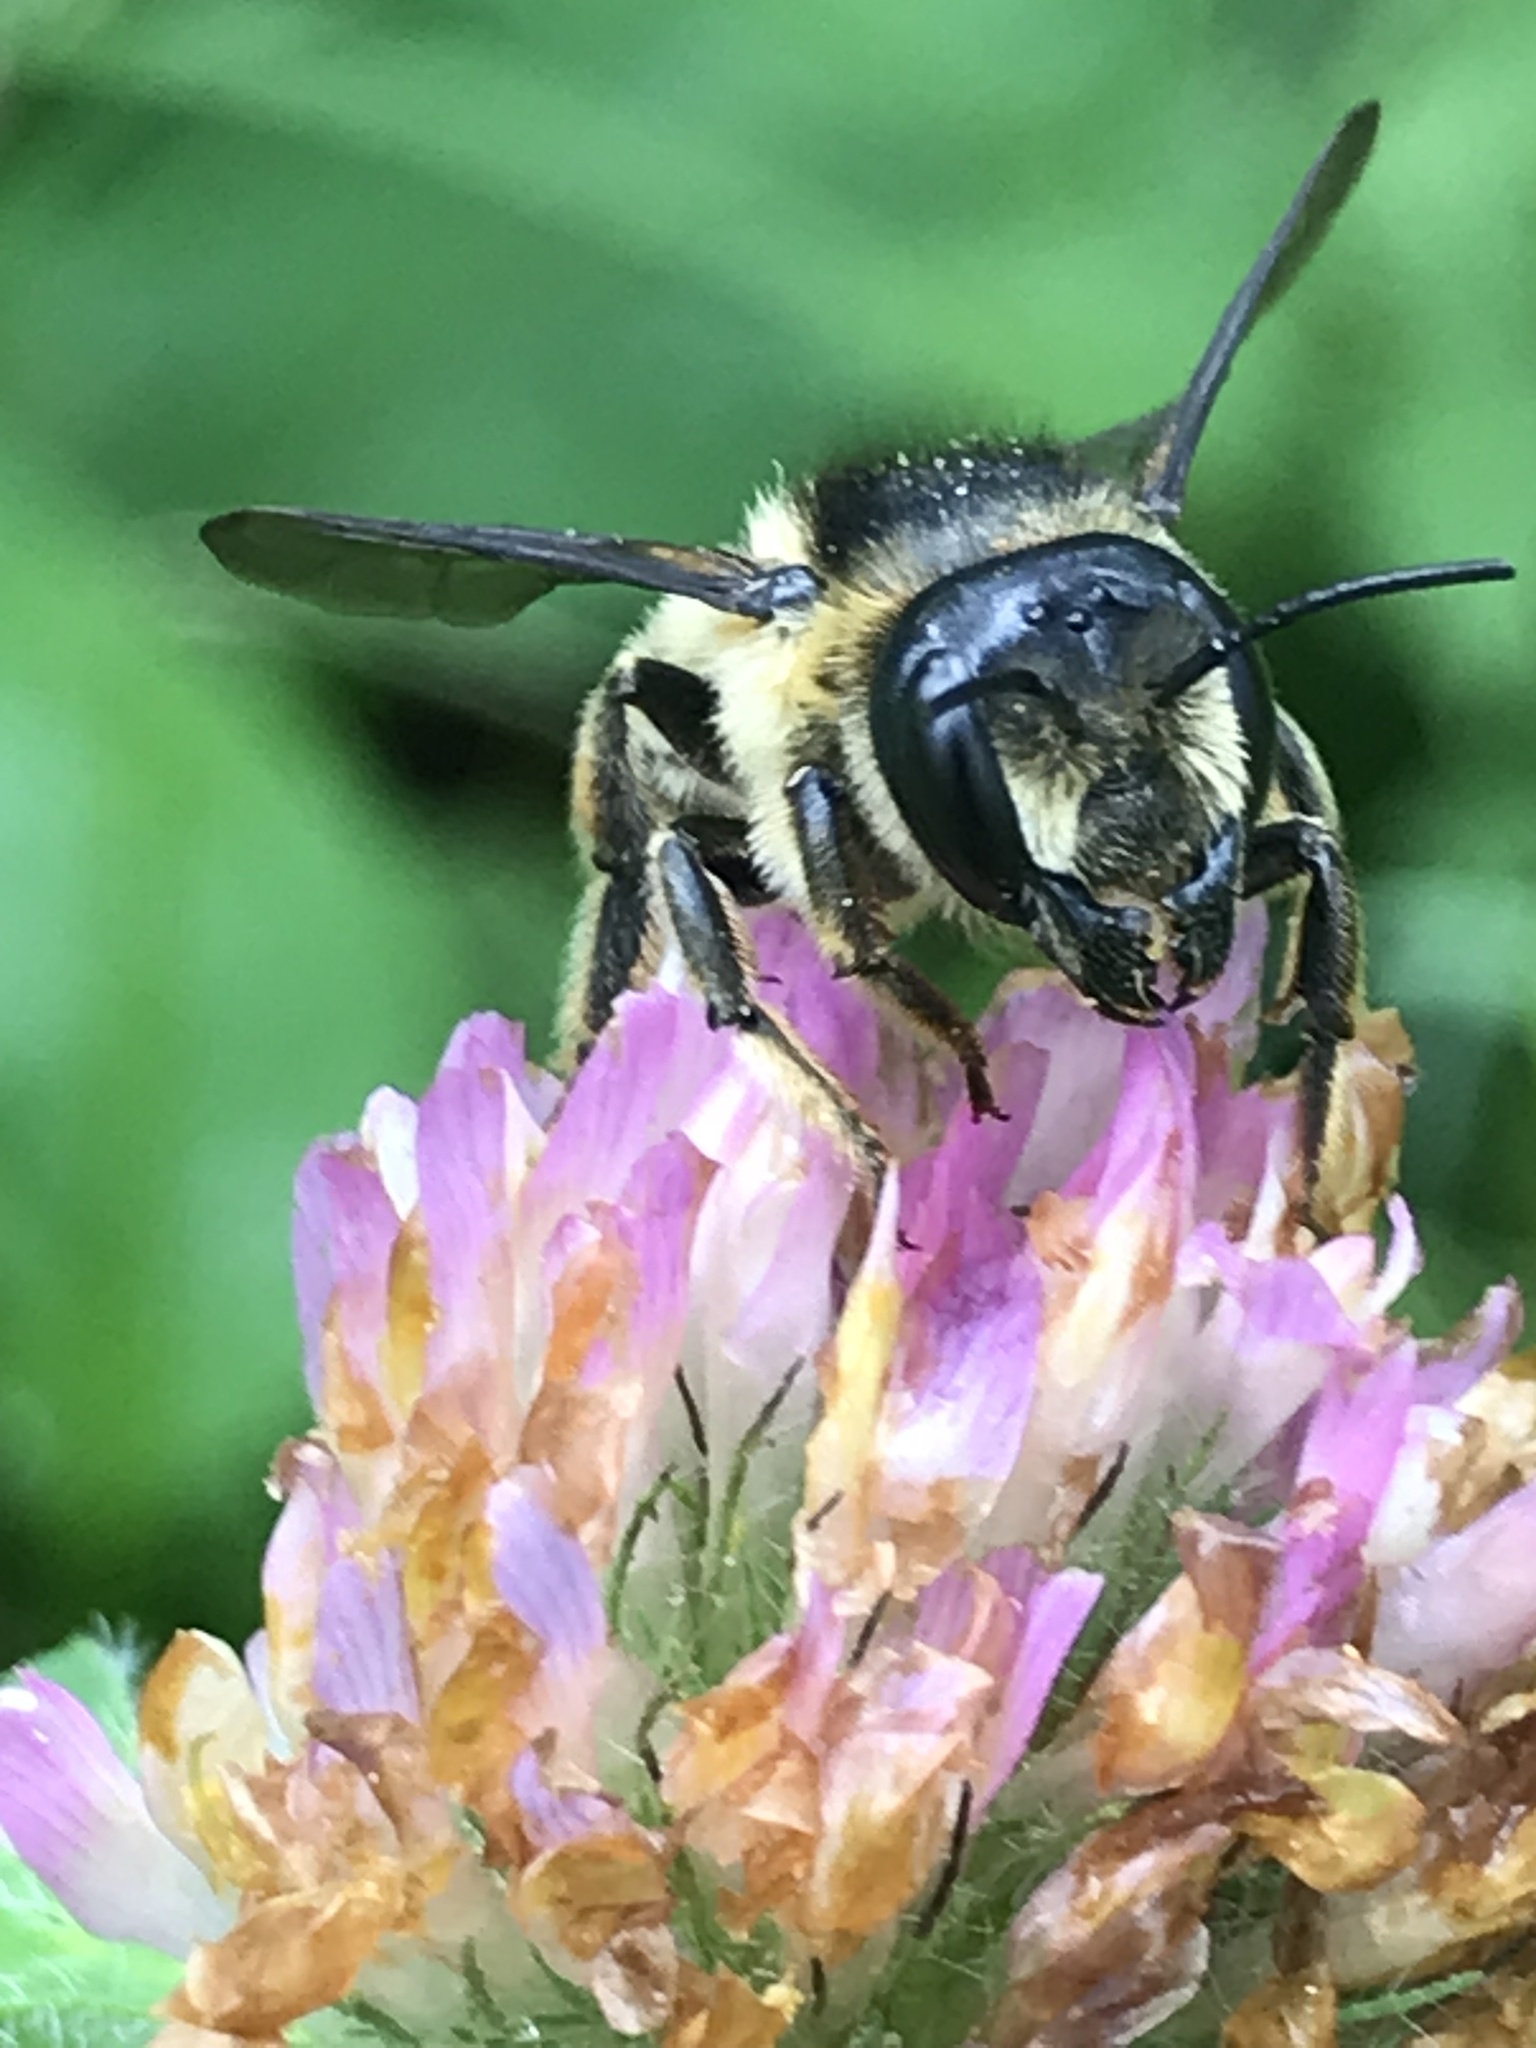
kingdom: Animalia
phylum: Arthropoda
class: Insecta
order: Hymenoptera
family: Megachilidae
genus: Megachile
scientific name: Megachile inermis
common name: Unarmed leafcutter bee
